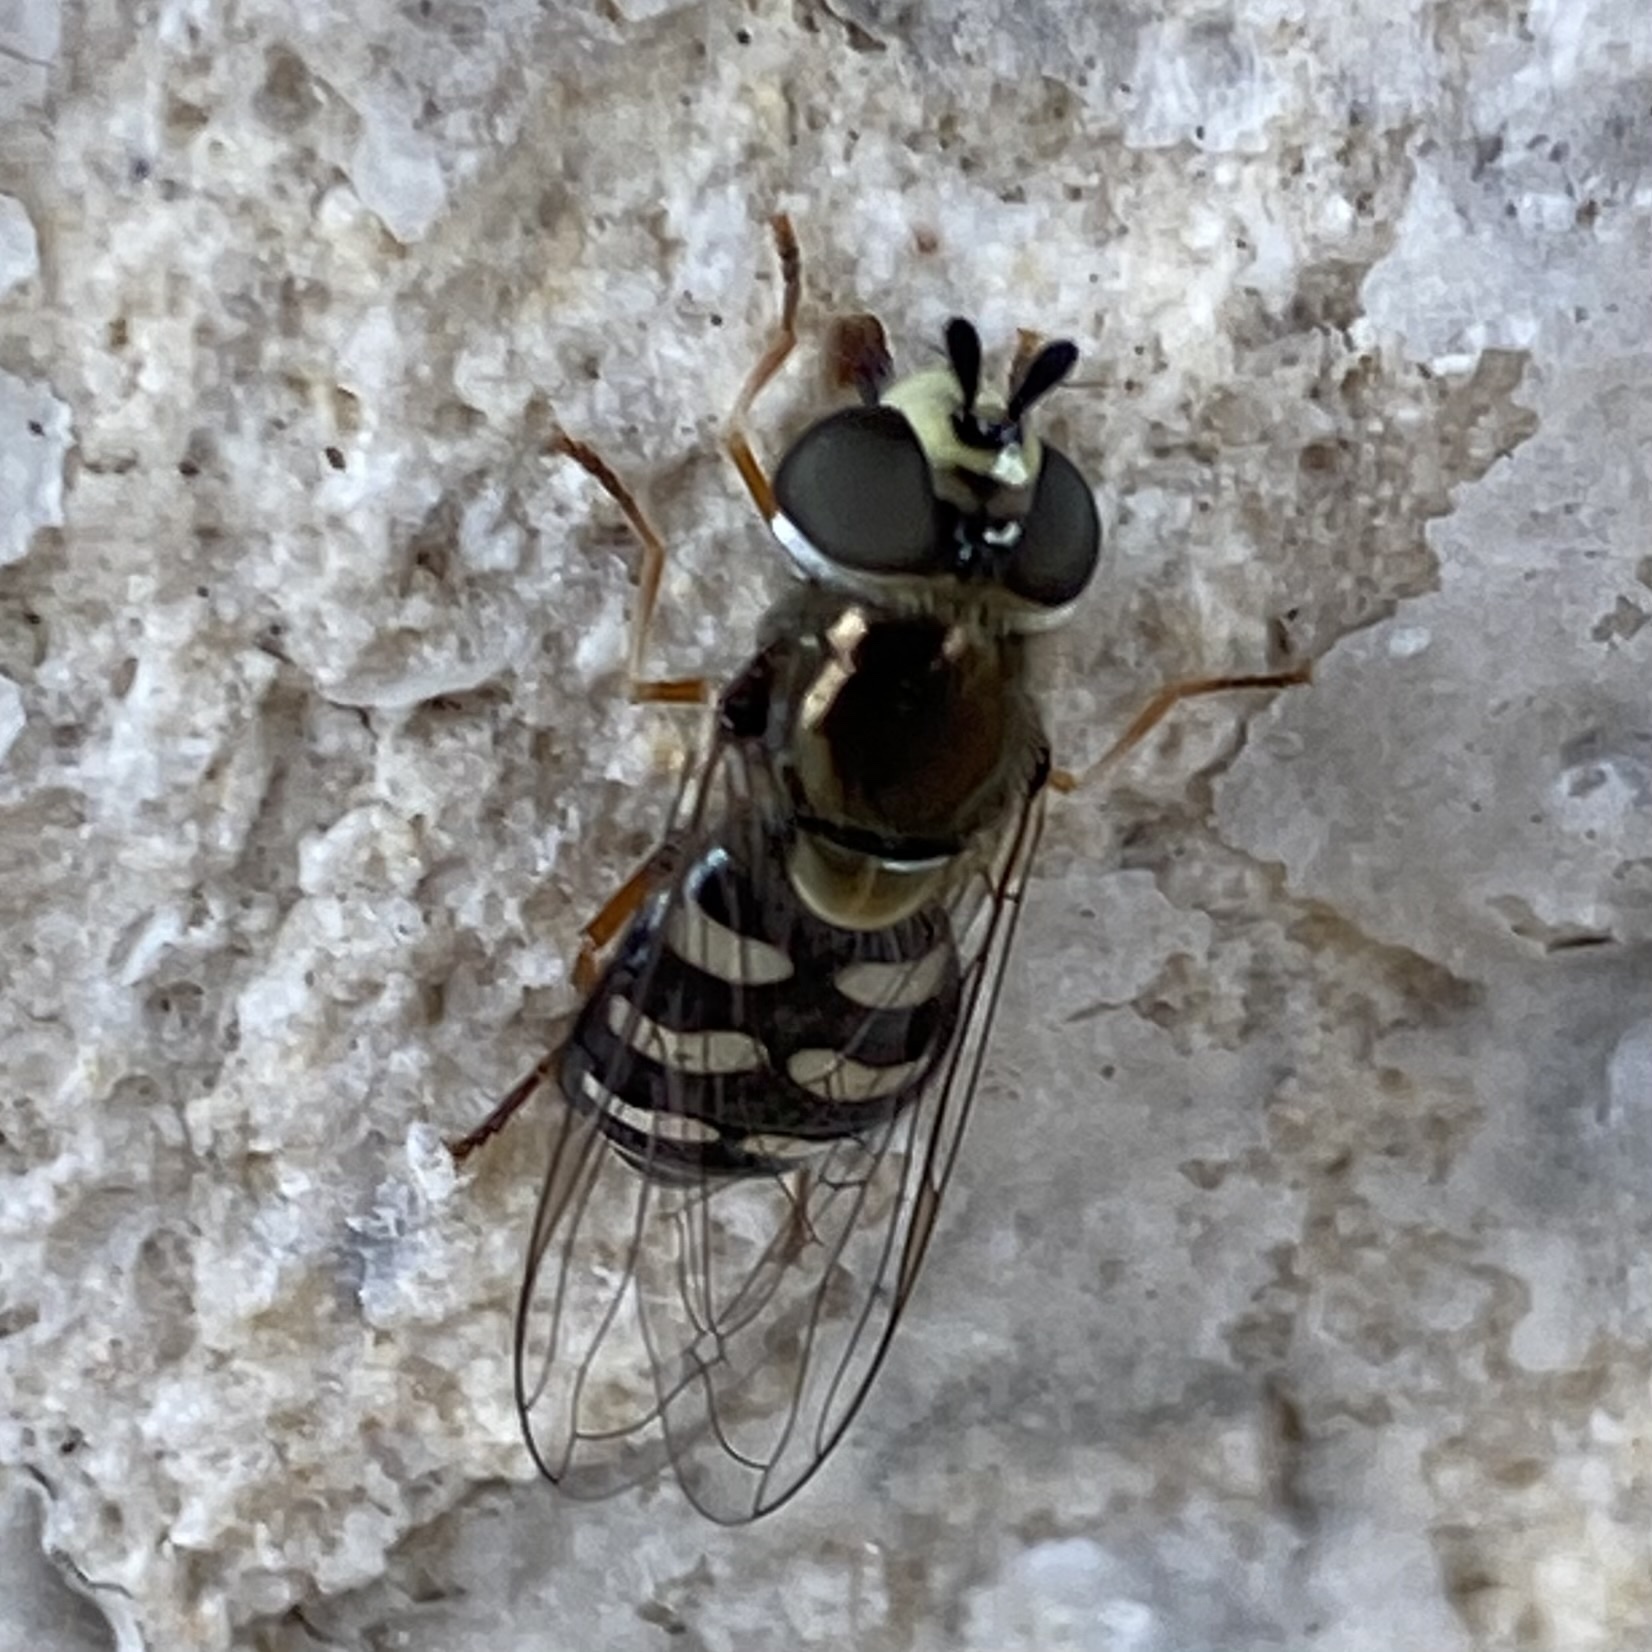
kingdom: Animalia
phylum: Arthropoda
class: Insecta
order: Diptera
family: Syrphidae
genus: Eupeodes
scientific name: Eupeodes volucris
